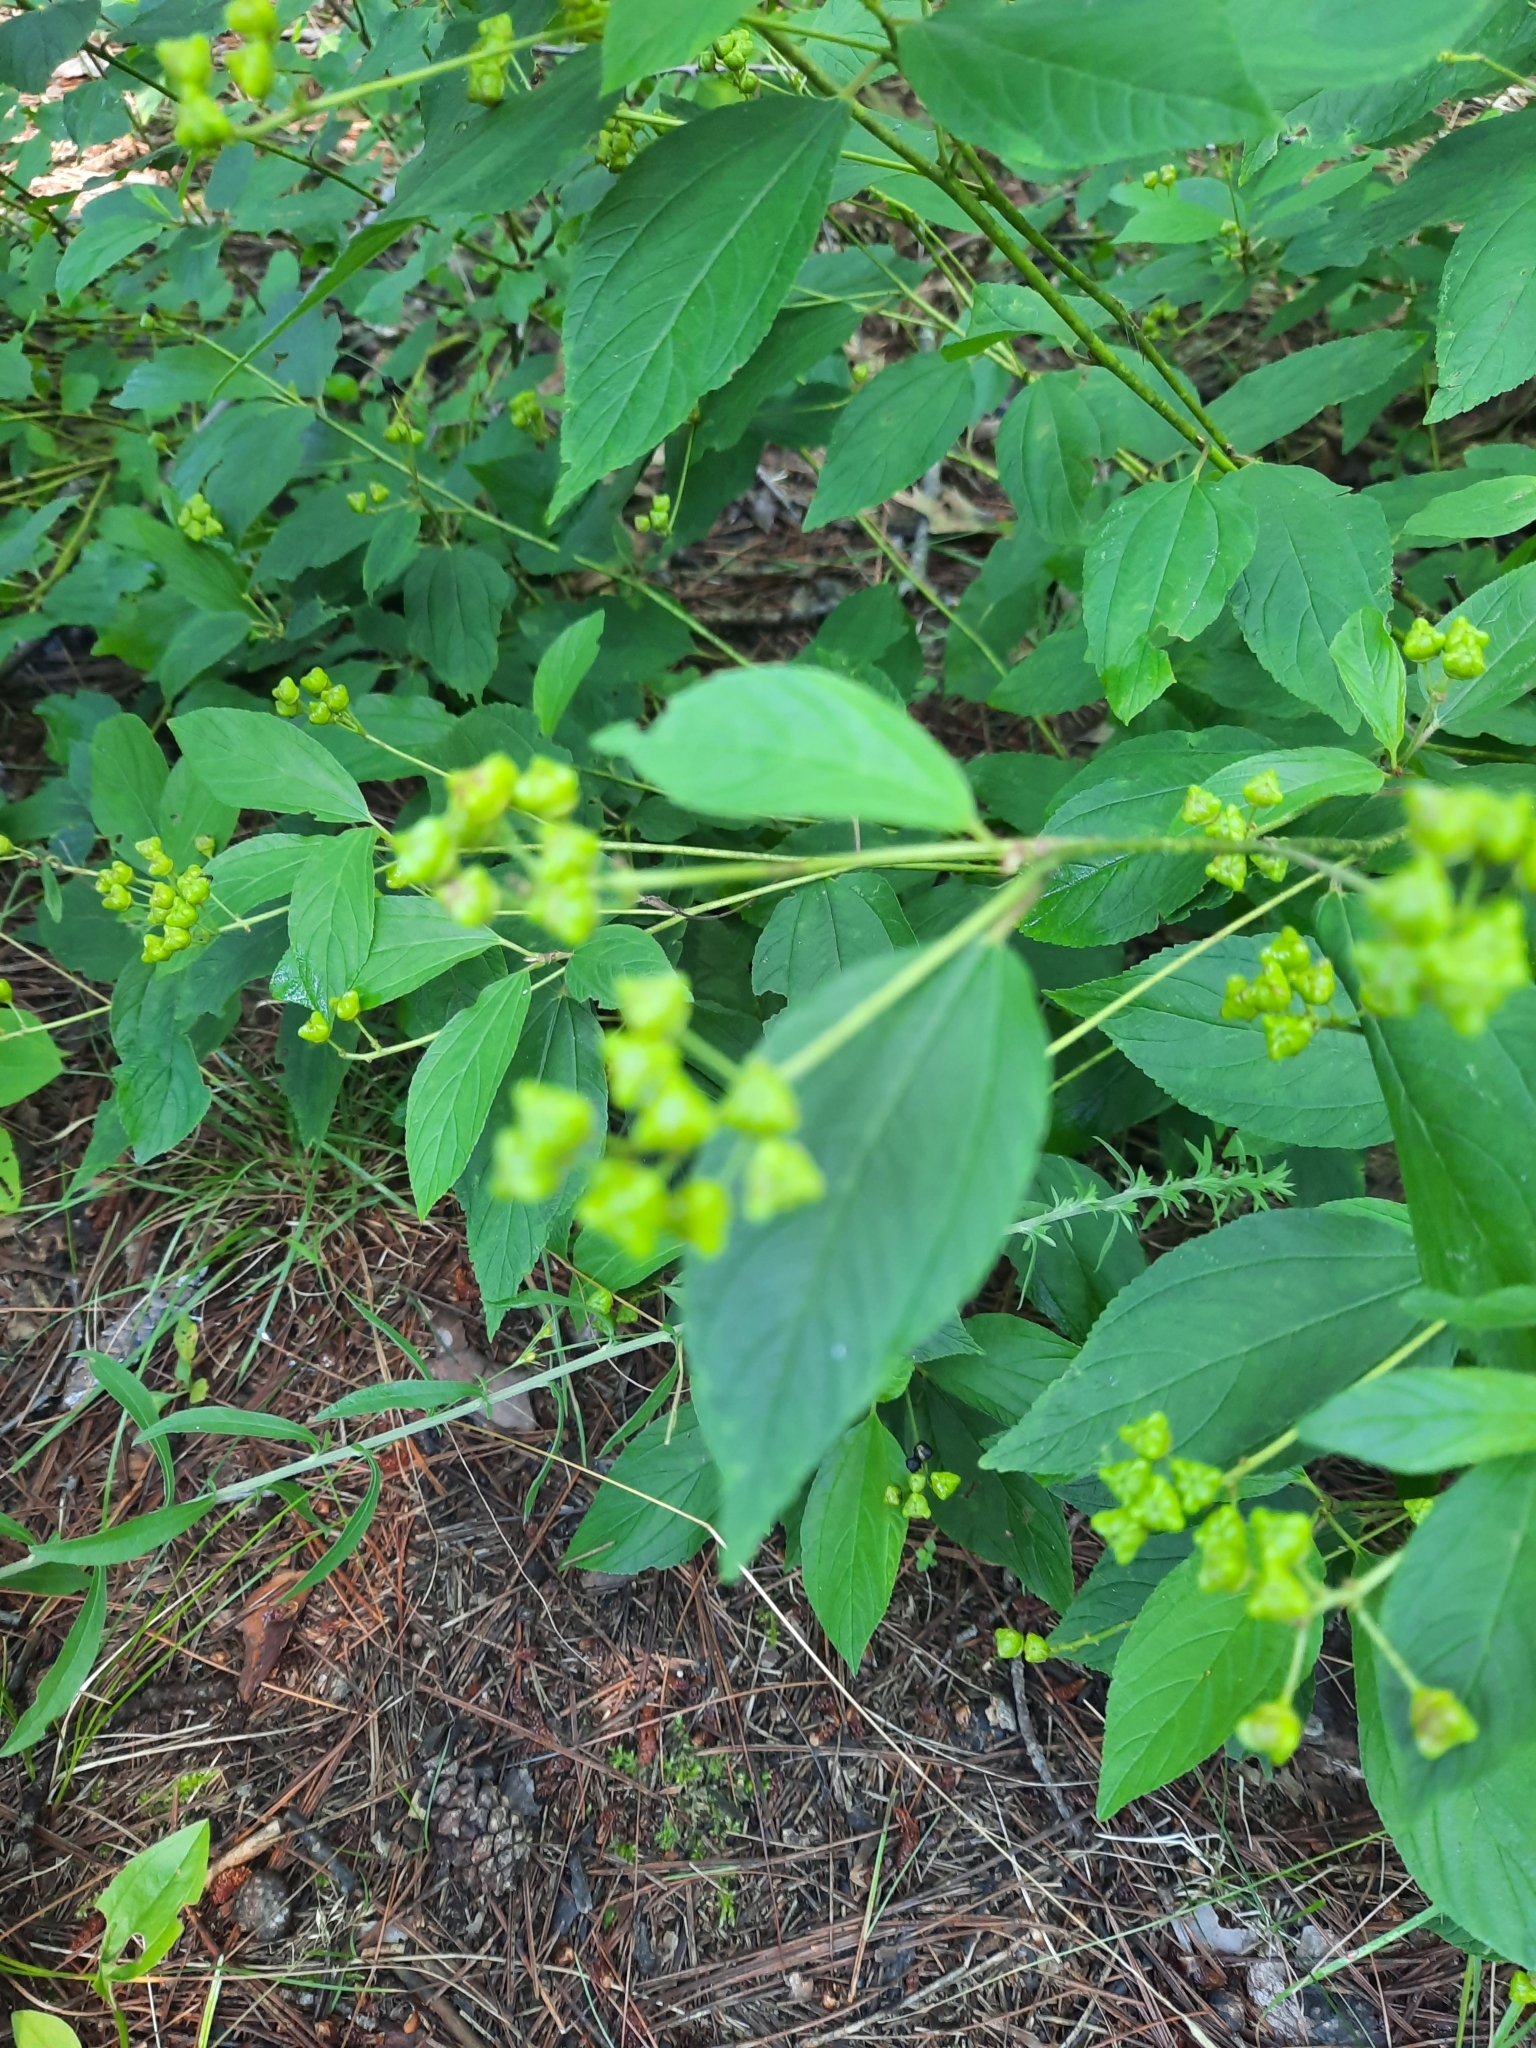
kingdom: Plantae
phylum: Tracheophyta
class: Magnoliopsida
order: Rosales
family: Rhamnaceae
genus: Ceanothus
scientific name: Ceanothus americanus
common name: Redroot
